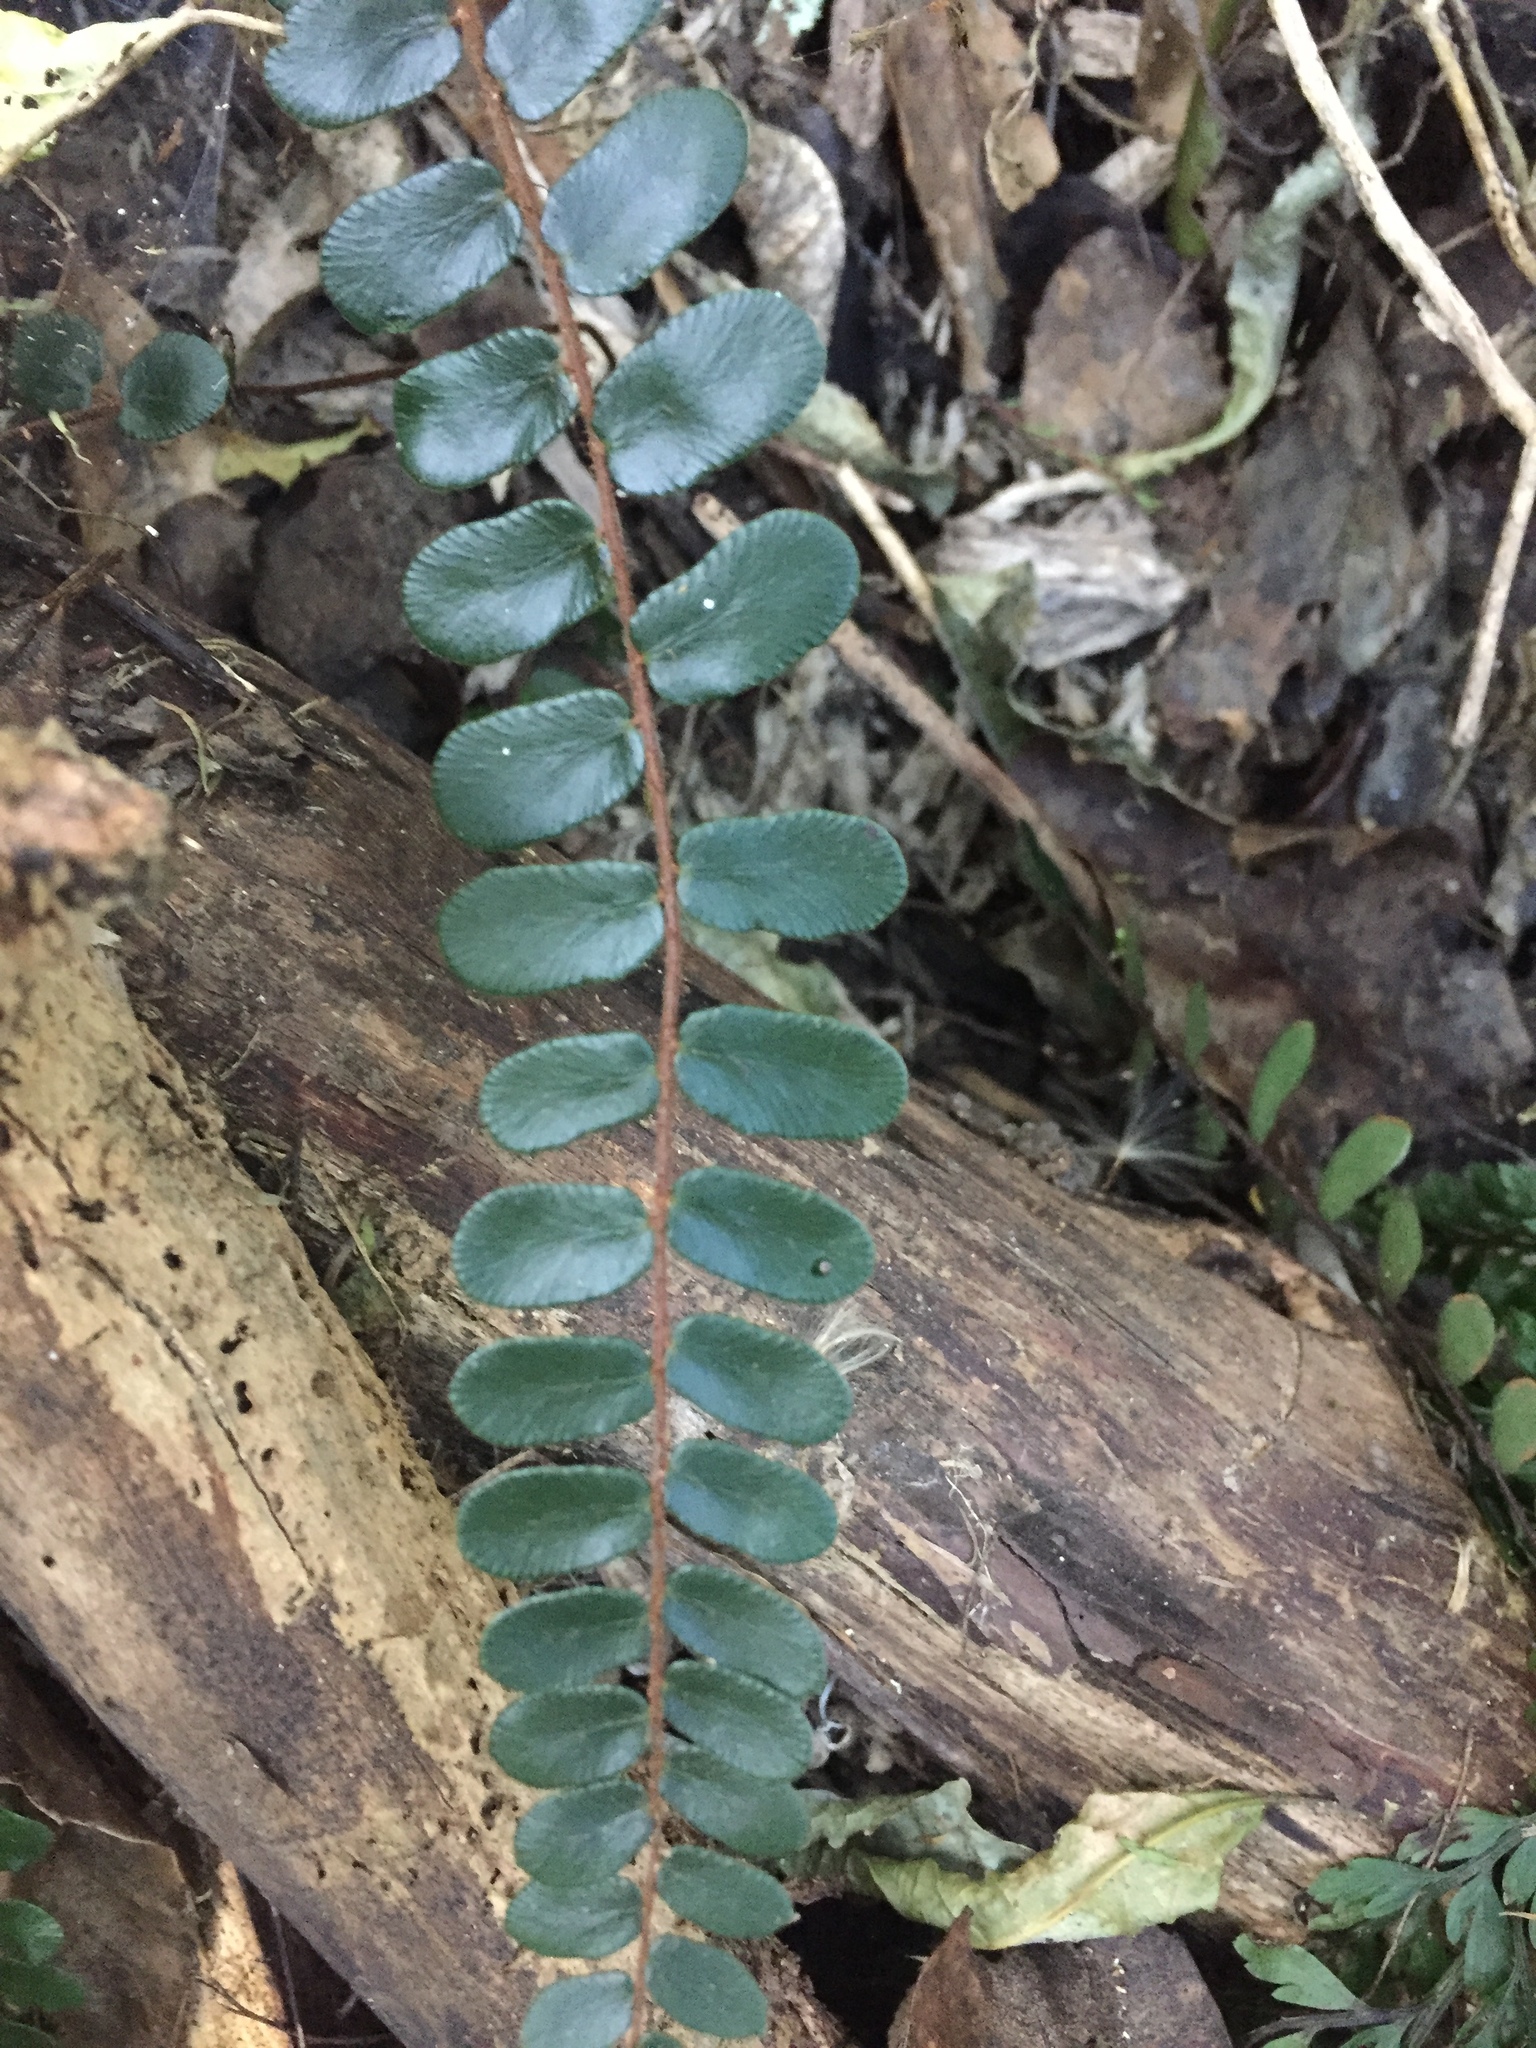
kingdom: Plantae
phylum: Tracheophyta
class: Polypodiopsida
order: Polypodiales
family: Pteridaceae
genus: Pellaea
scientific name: Pellaea rotundifolia
